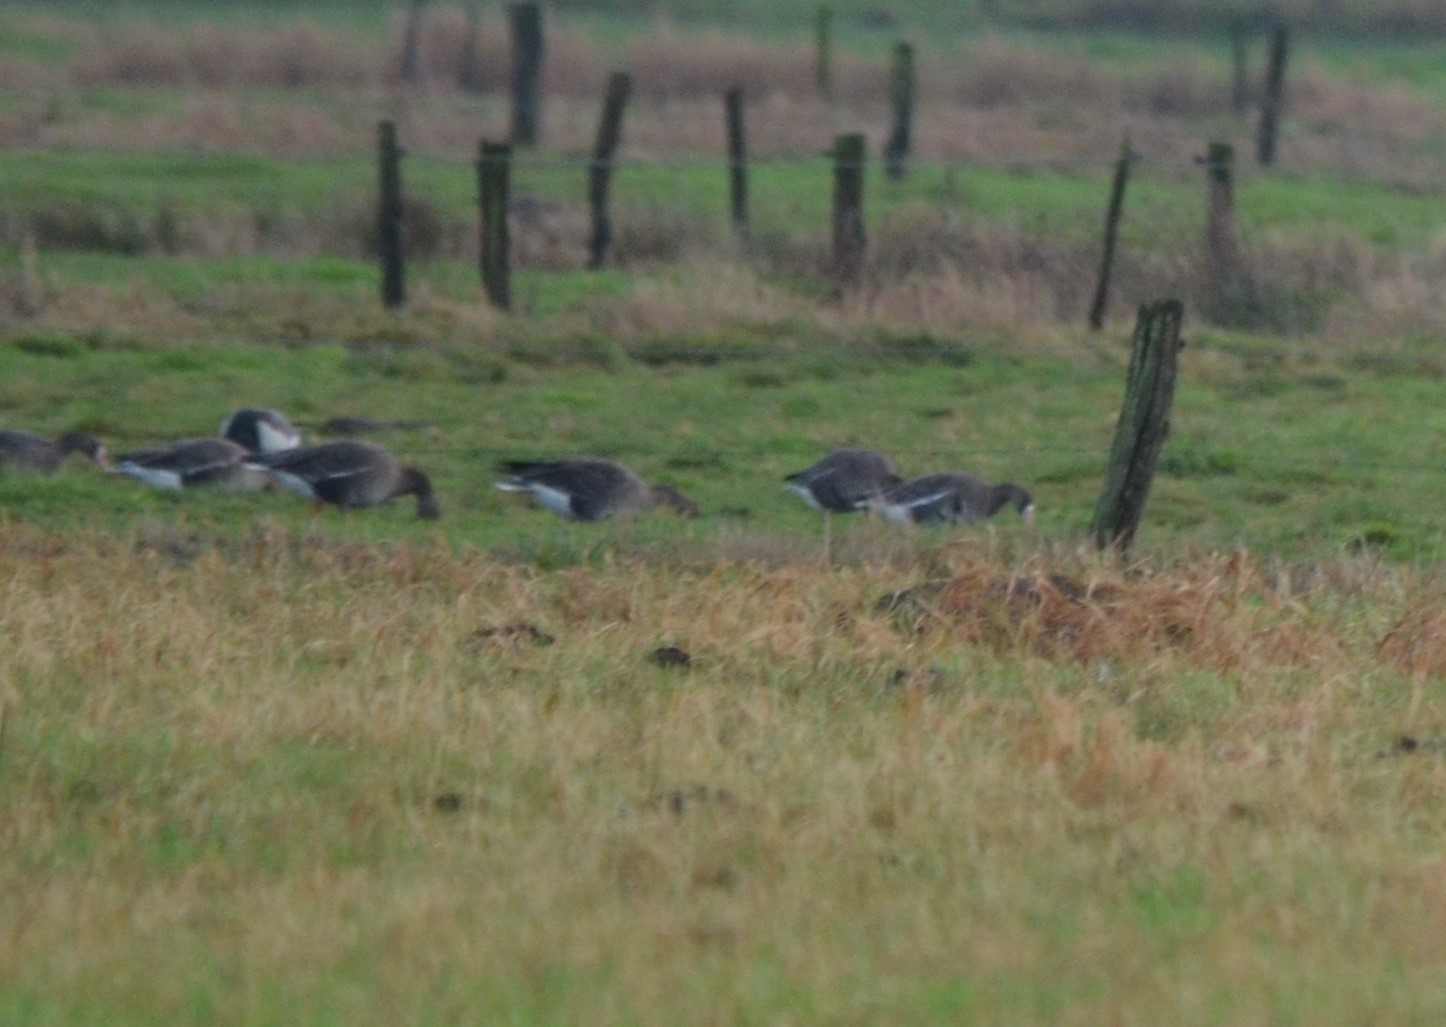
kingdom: Animalia
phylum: Chordata
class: Aves
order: Anseriformes
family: Anatidae
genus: Anser
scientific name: Anser albifrons
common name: Greater white-fronted goose
